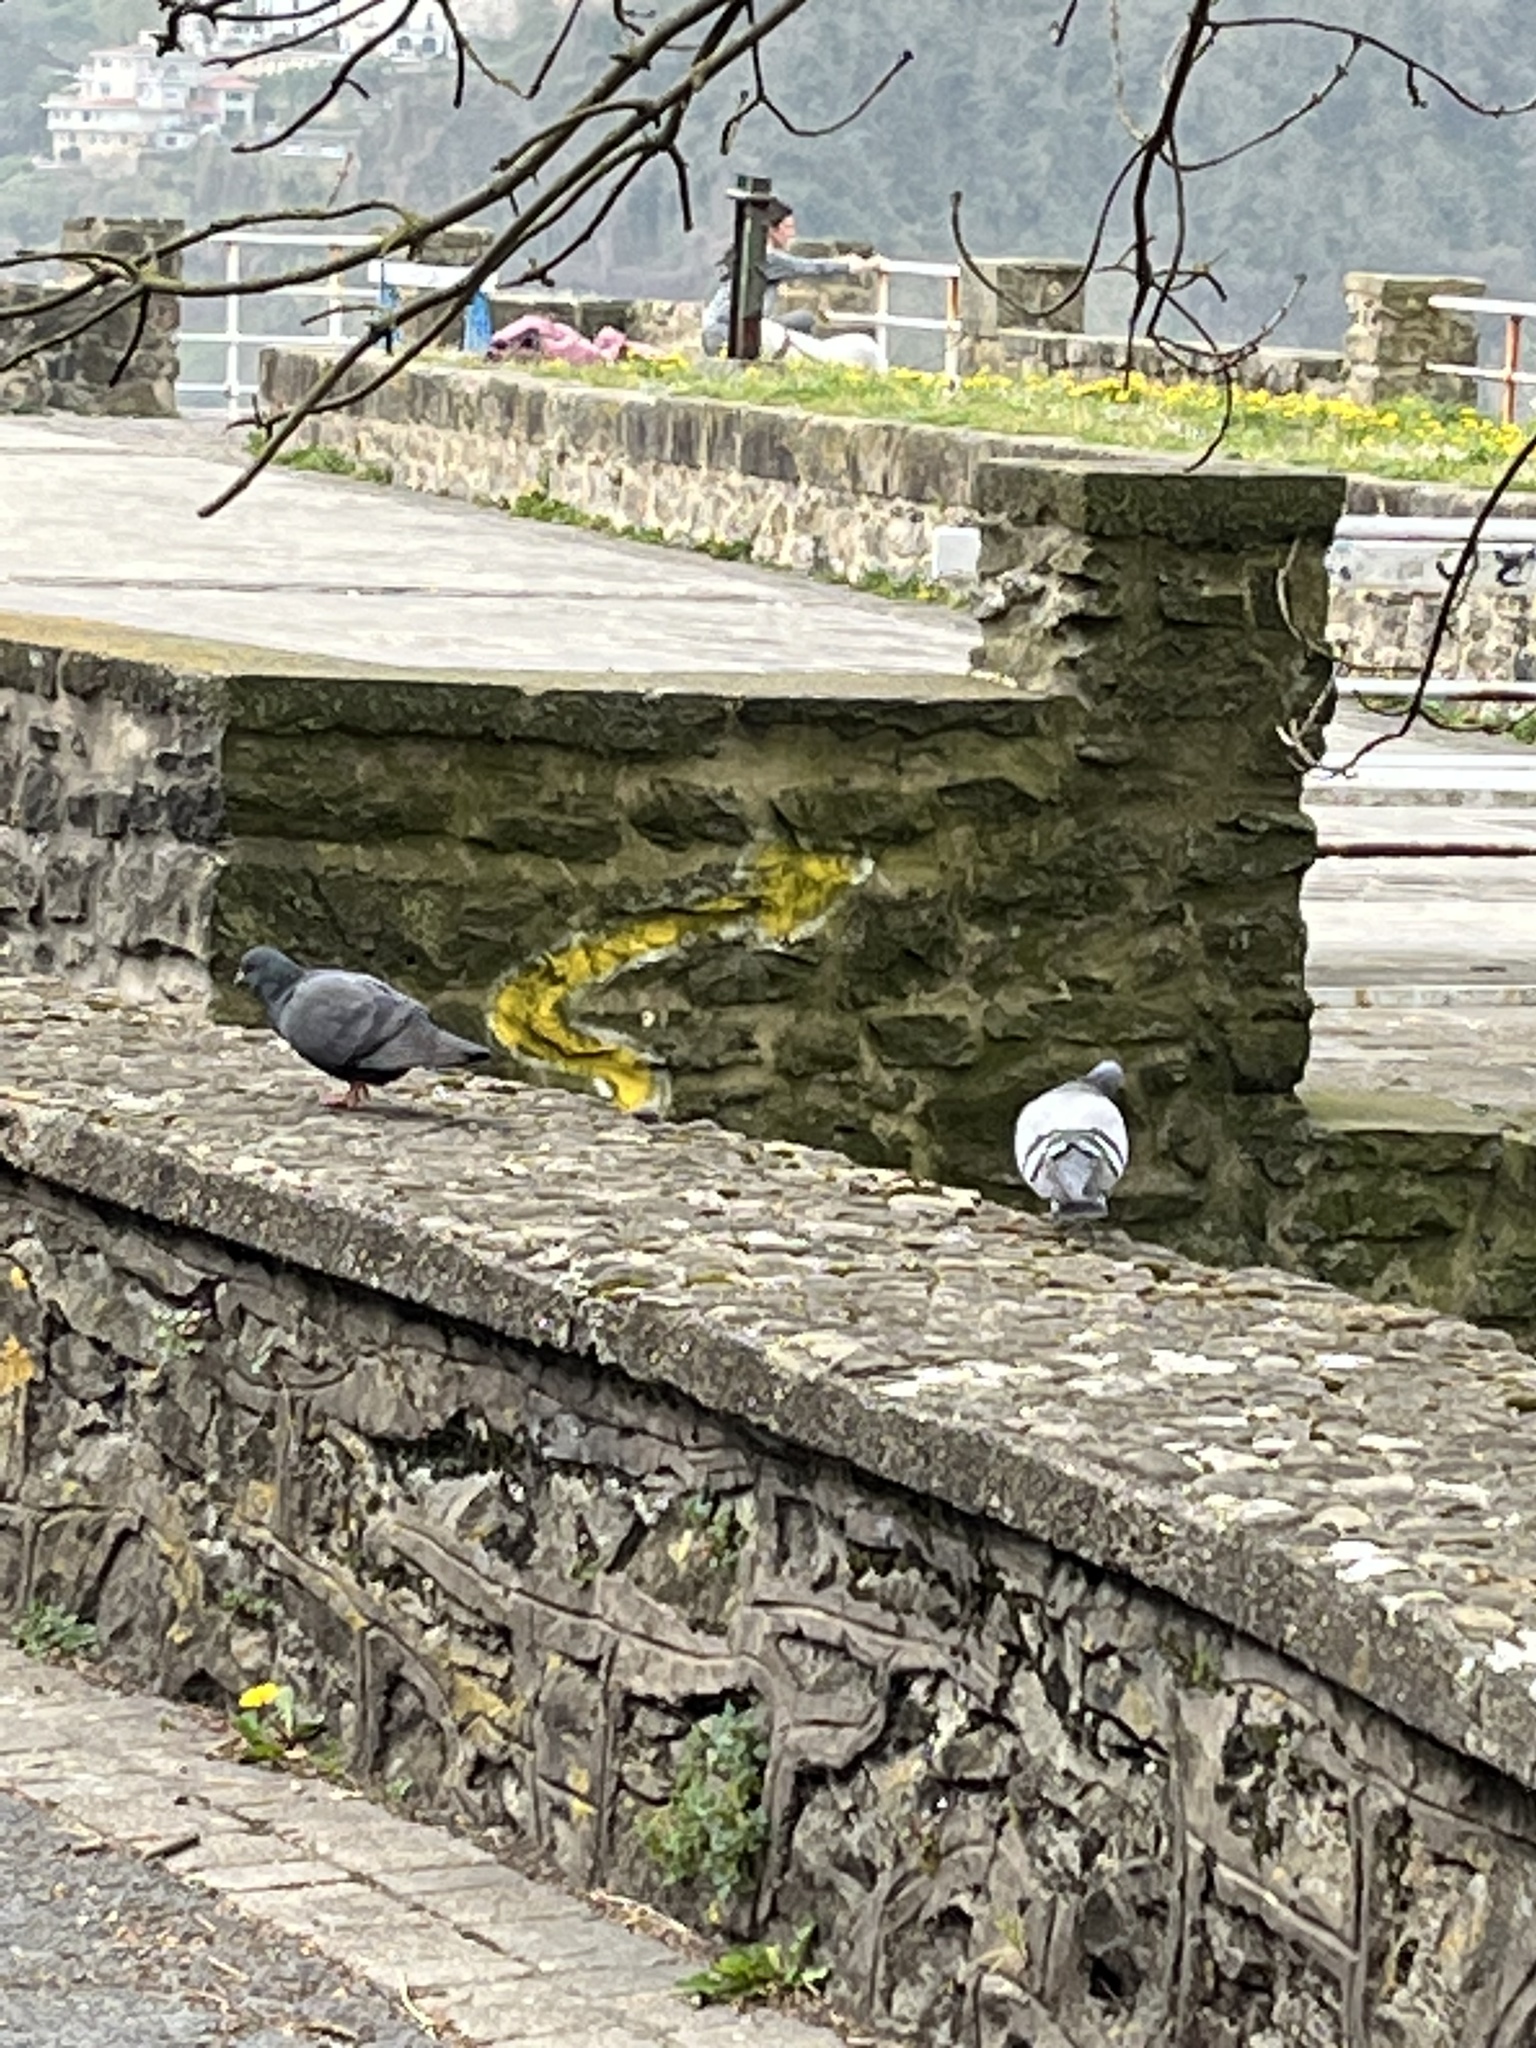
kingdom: Animalia
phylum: Chordata
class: Aves
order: Columbiformes
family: Columbidae
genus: Columba
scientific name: Columba livia
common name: Rock pigeon
